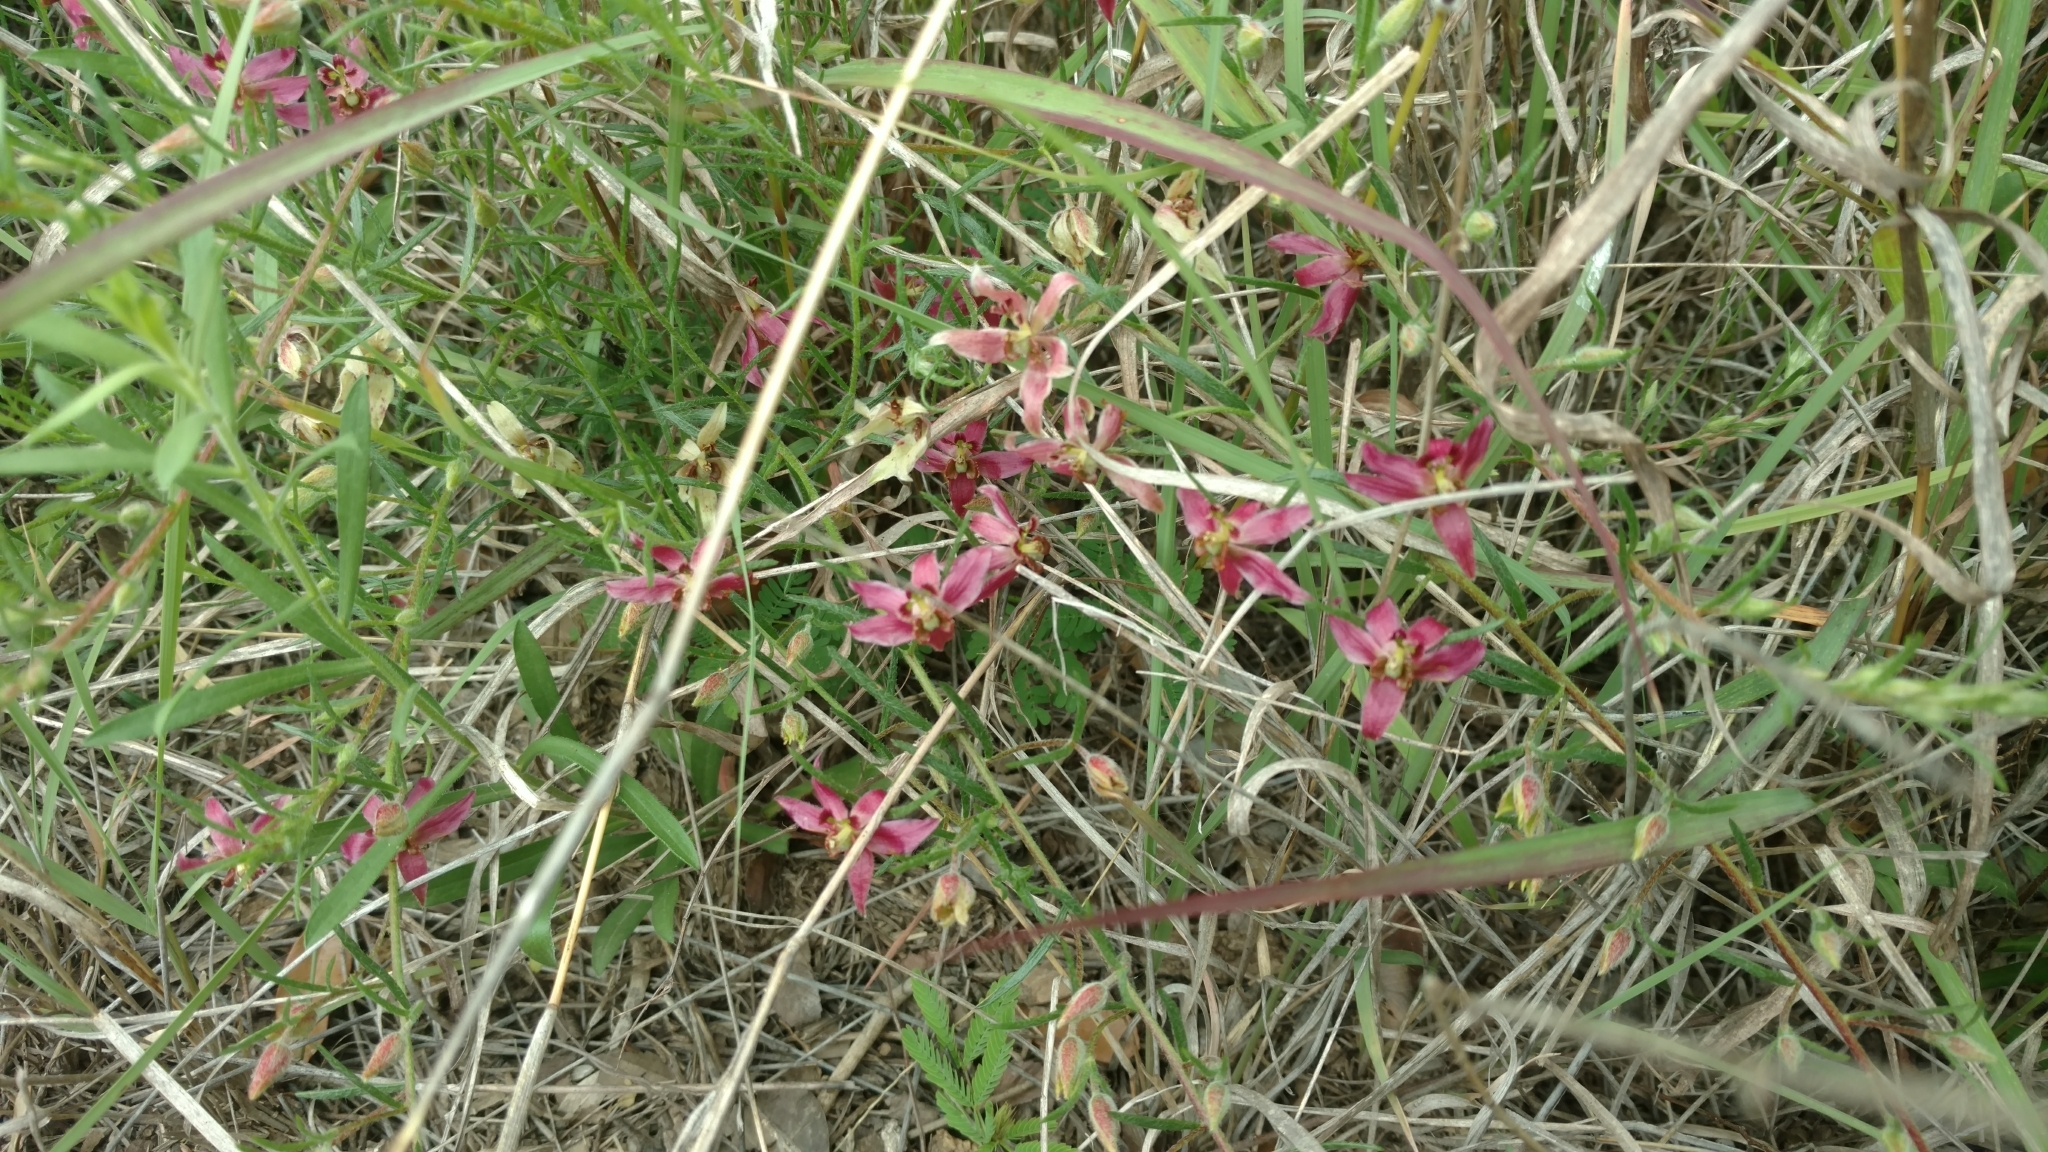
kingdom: Plantae
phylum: Tracheophyta
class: Magnoliopsida
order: Zygophyllales
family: Krameriaceae
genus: Krameria
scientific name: Krameria lanceolata
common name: Ratany
